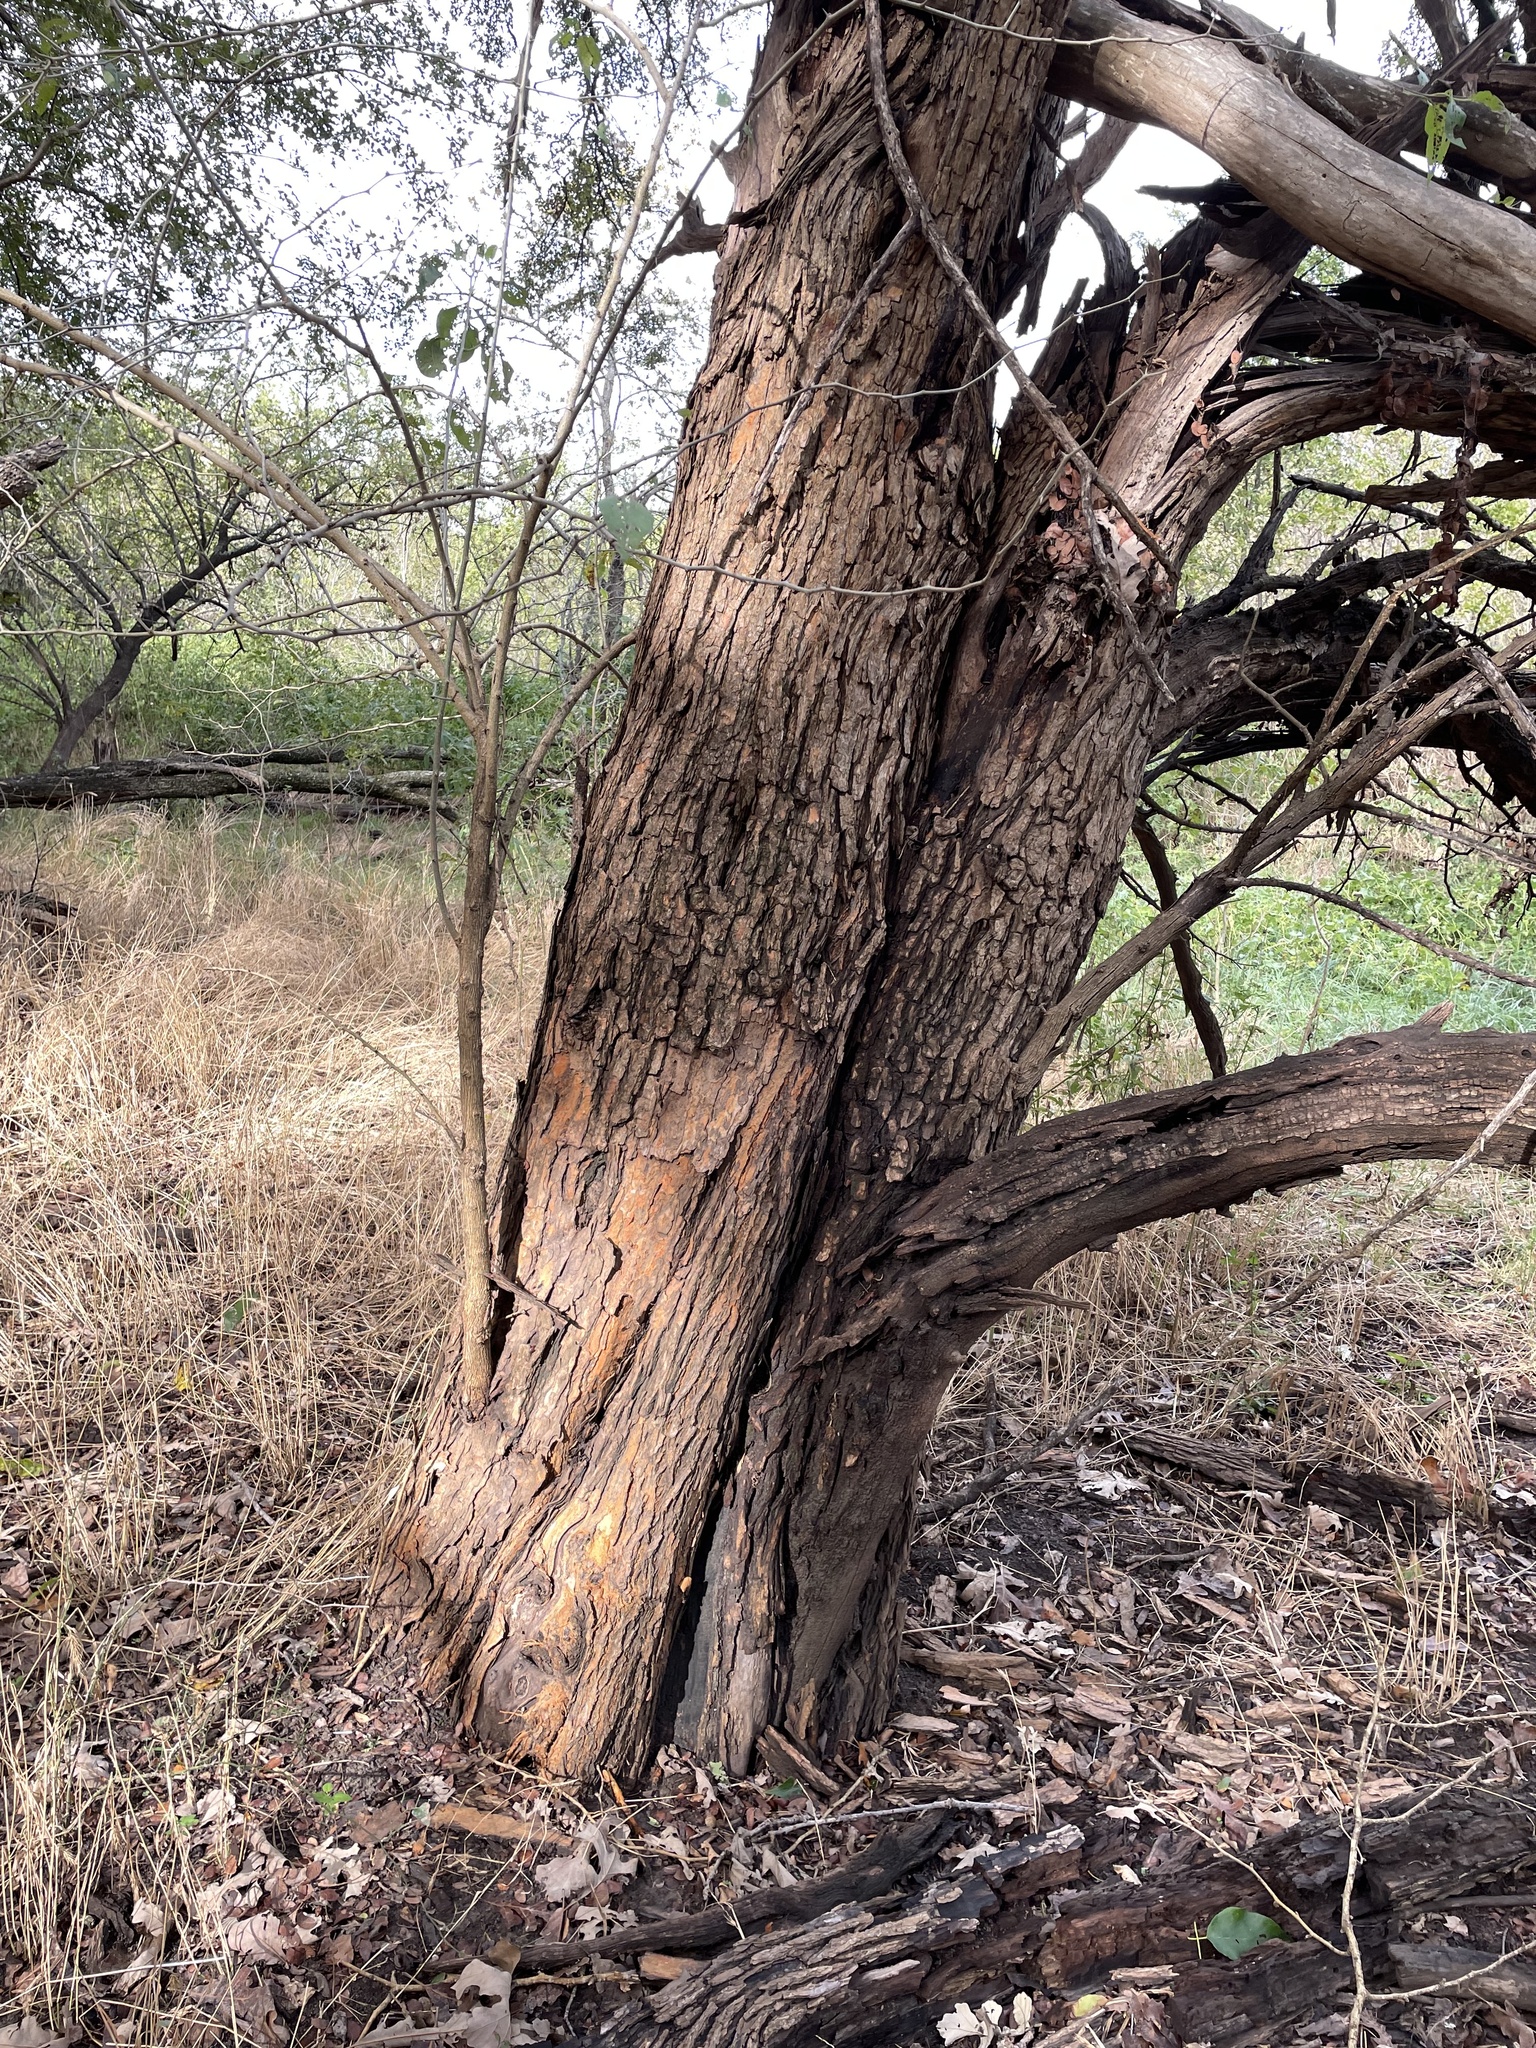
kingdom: Plantae
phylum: Tracheophyta
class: Magnoliopsida
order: Rosales
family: Moraceae
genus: Maclura
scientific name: Maclura pomifera
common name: Osage-orange
